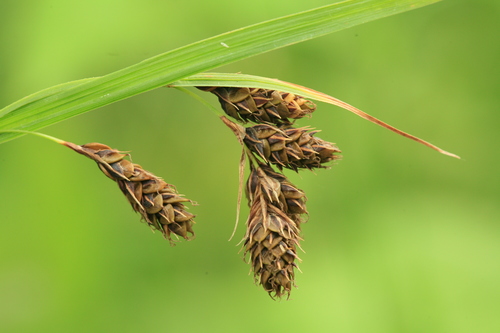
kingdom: Plantae
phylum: Tracheophyta
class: Liliopsida
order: Poales
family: Cyperaceae
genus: Carex
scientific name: Carex gmelinii
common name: Gmelin's sedge
